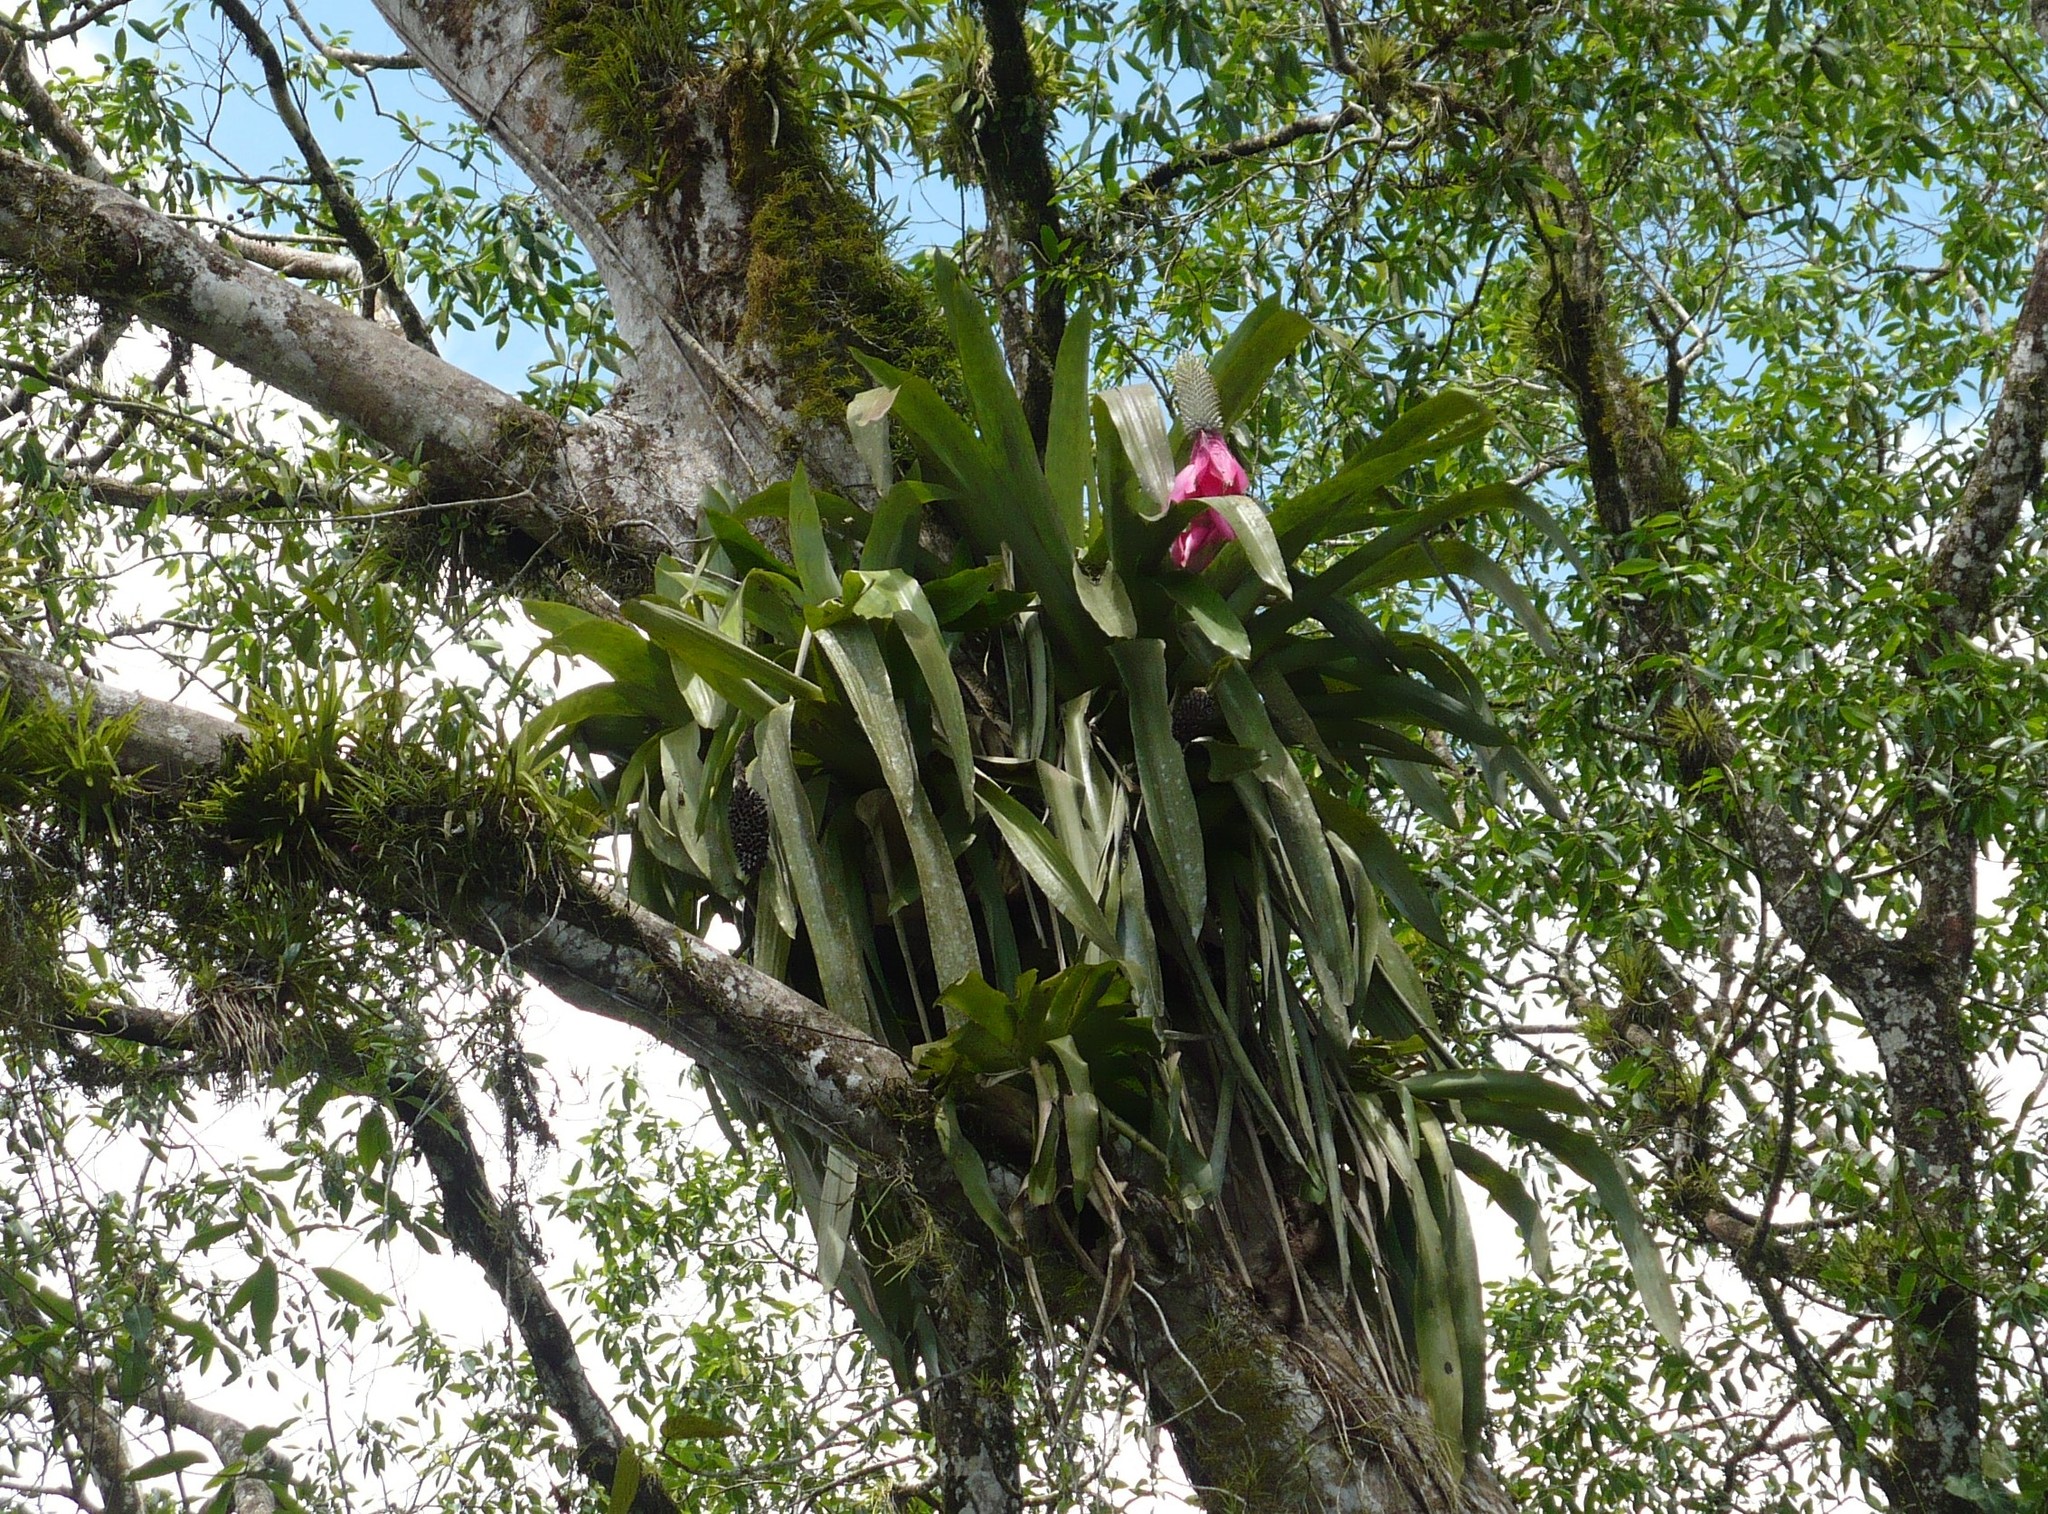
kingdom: Plantae
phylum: Tracheophyta
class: Liliopsida
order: Poales
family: Bromeliaceae
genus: Aechmea
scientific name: Aechmea mariae-reginae
